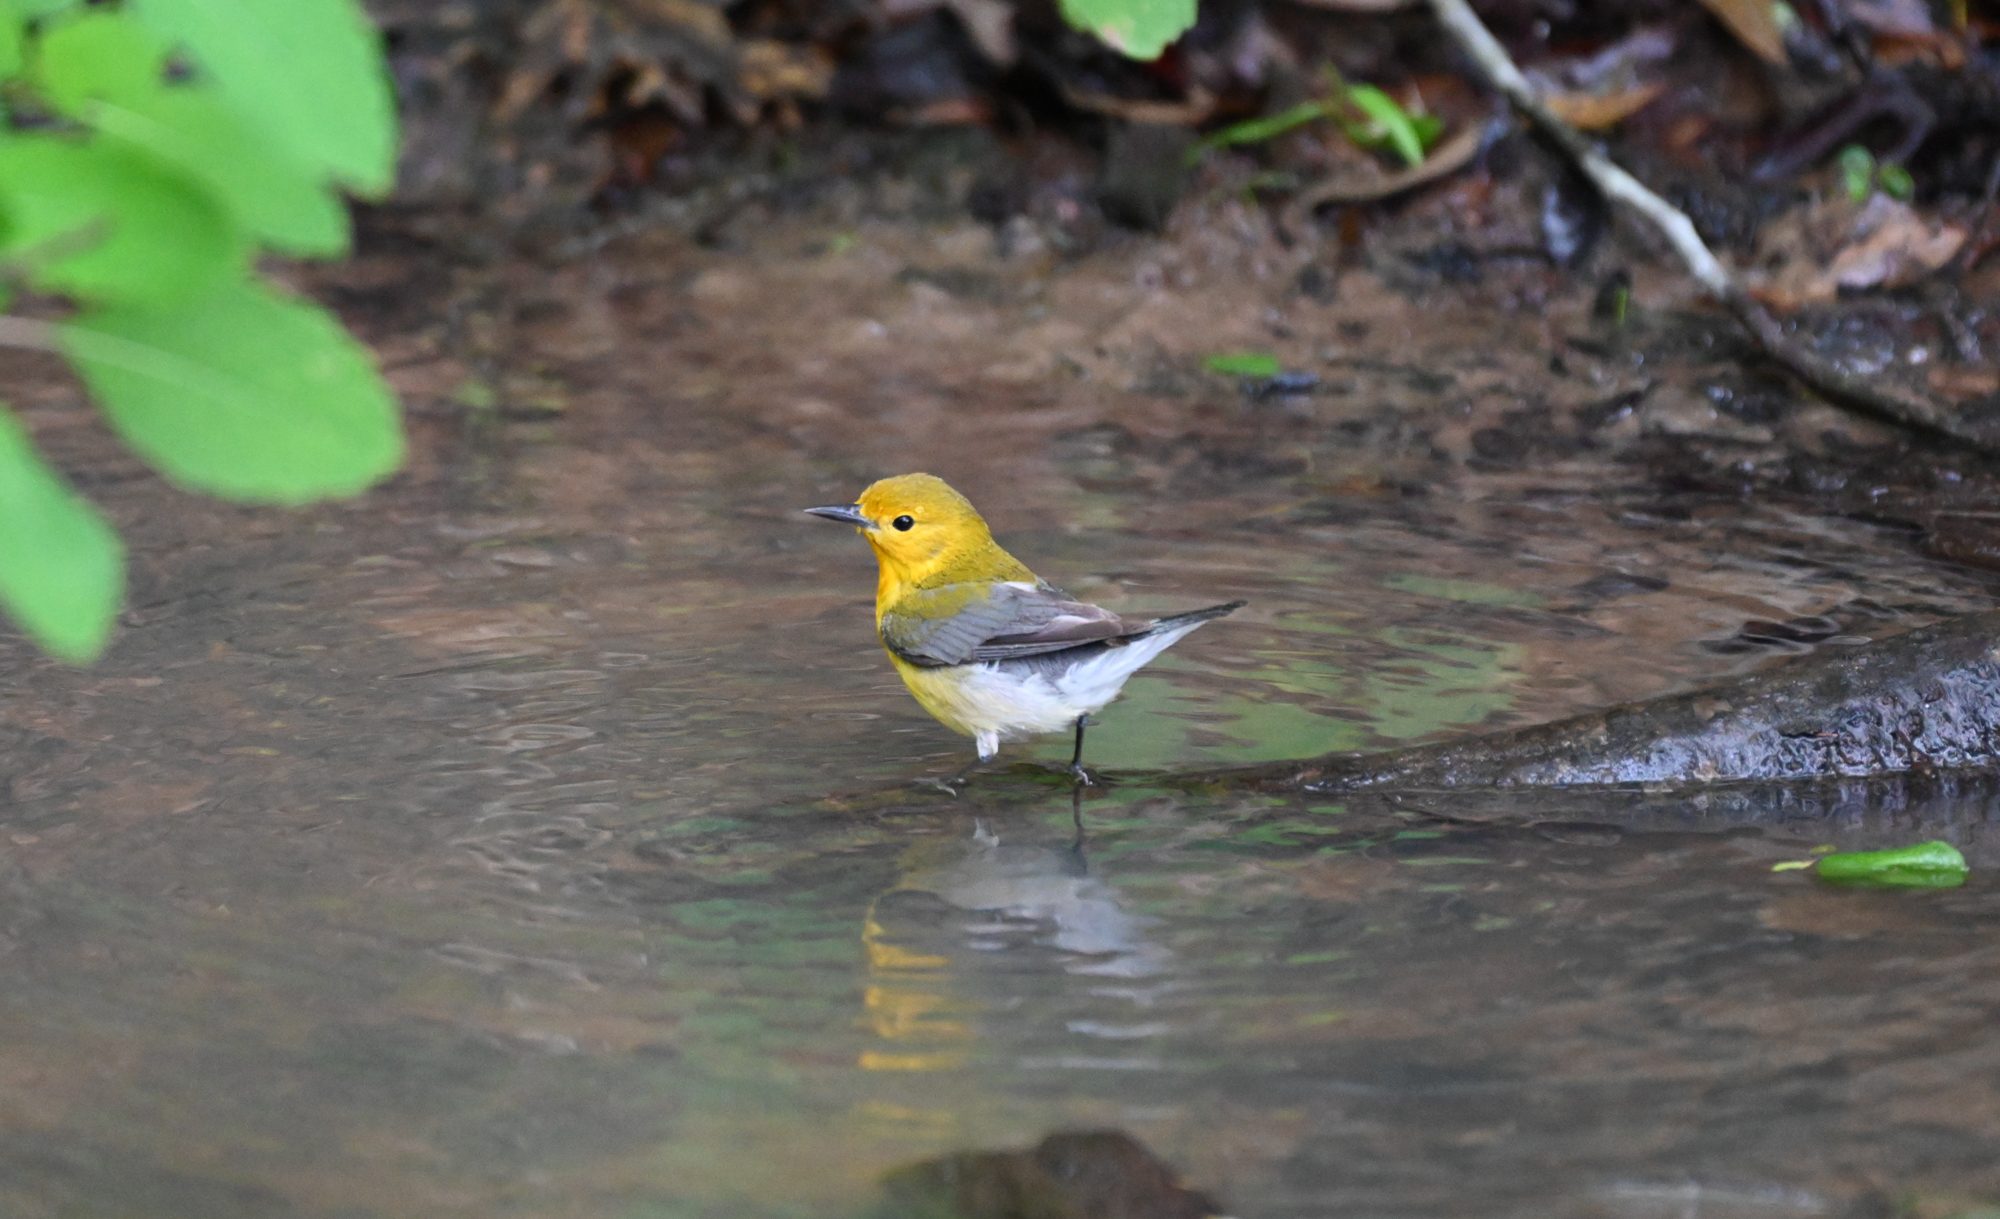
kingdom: Animalia
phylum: Chordata
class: Aves
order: Passeriformes
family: Parulidae
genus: Protonotaria
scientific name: Protonotaria citrea
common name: Prothonotary warbler
